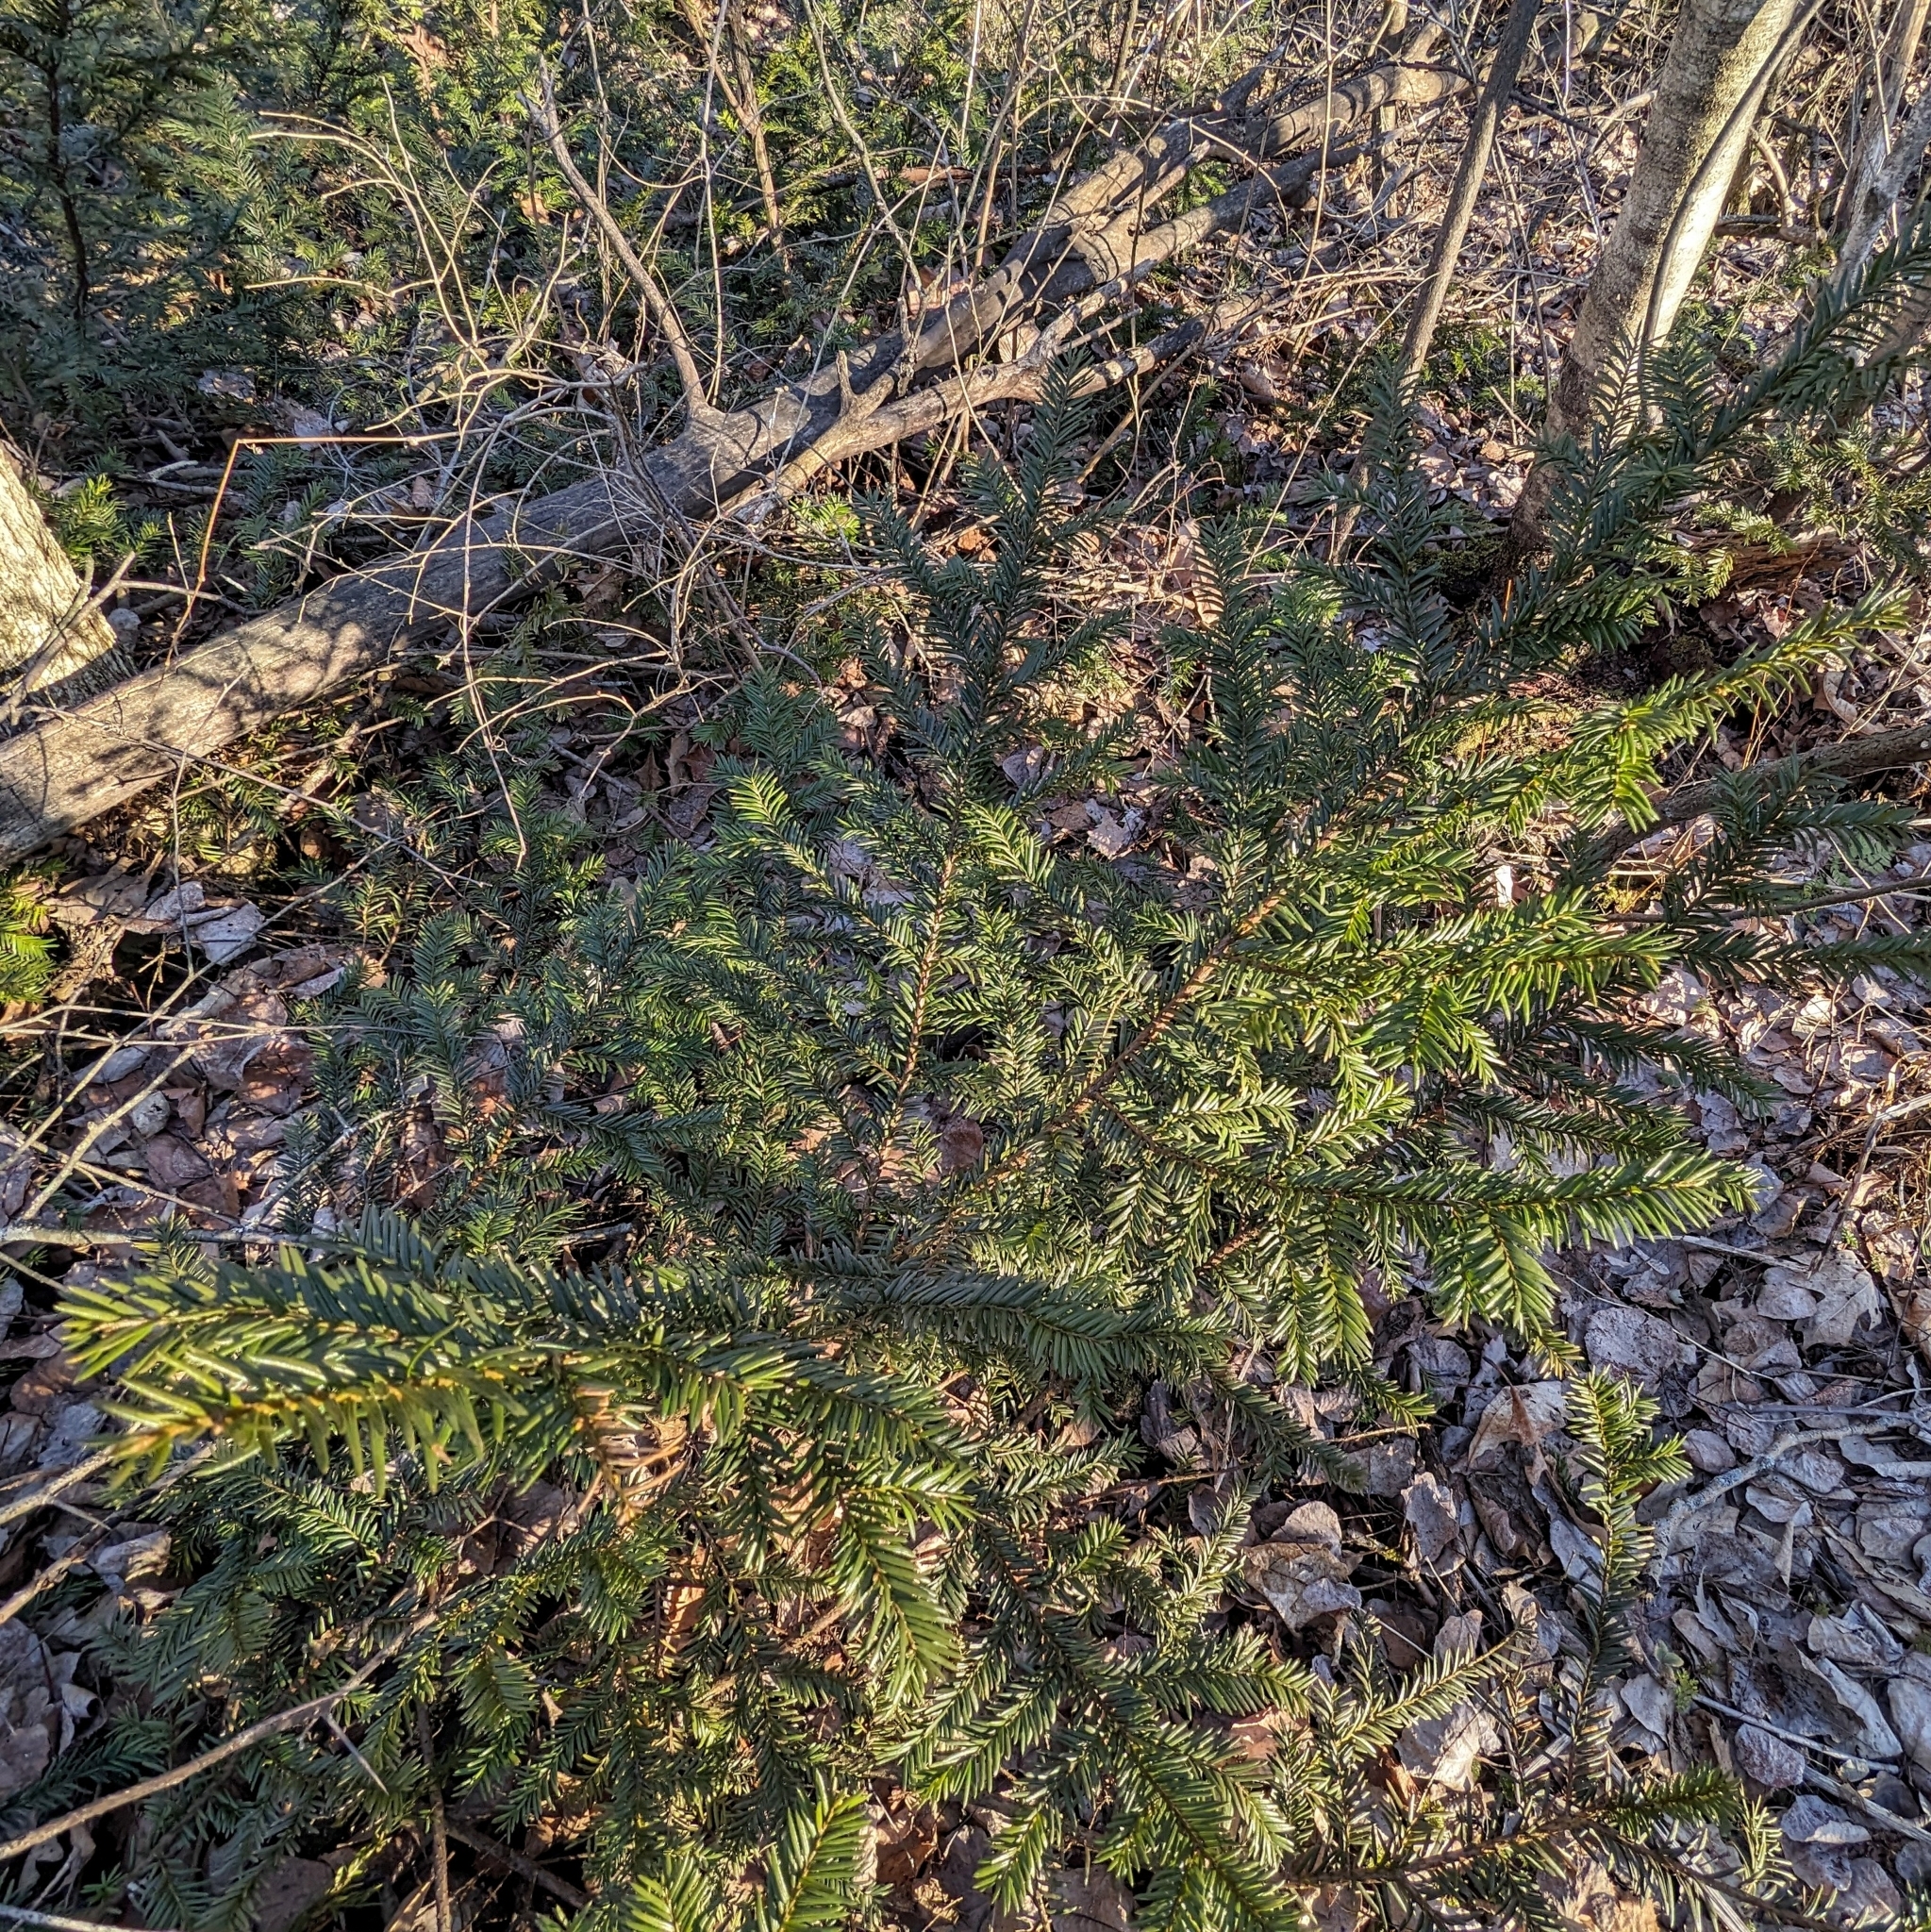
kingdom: Plantae
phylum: Tracheophyta
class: Pinopsida
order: Pinales
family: Taxaceae
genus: Taxus
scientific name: Taxus canadensis
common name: American yew
